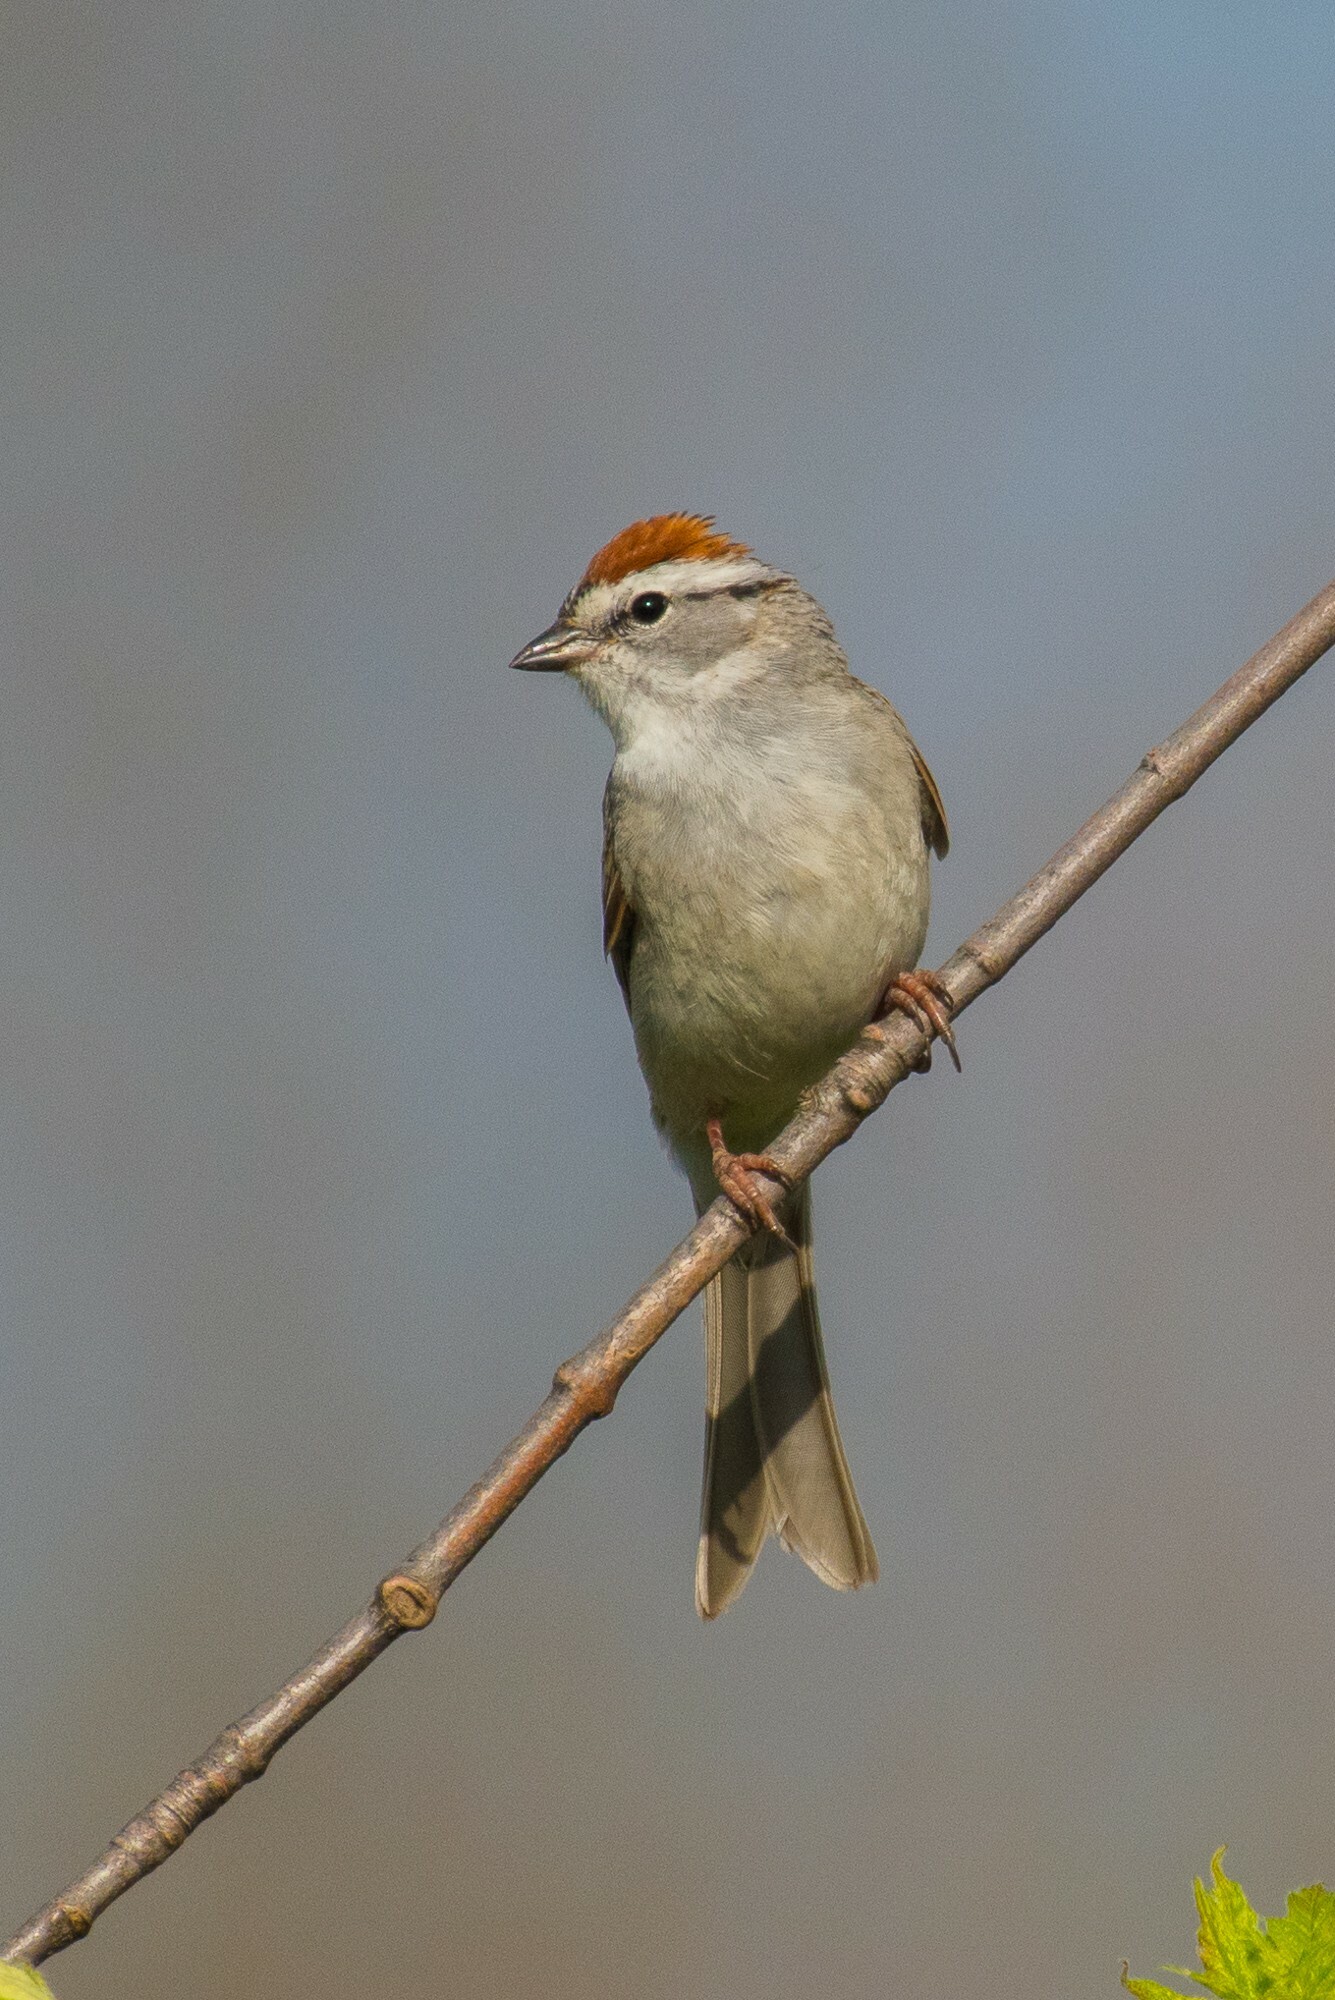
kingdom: Animalia
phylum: Chordata
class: Aves
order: Passeriformes
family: Passerellidae
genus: Spizella
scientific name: Spizella passerina
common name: Chipping sparrow
